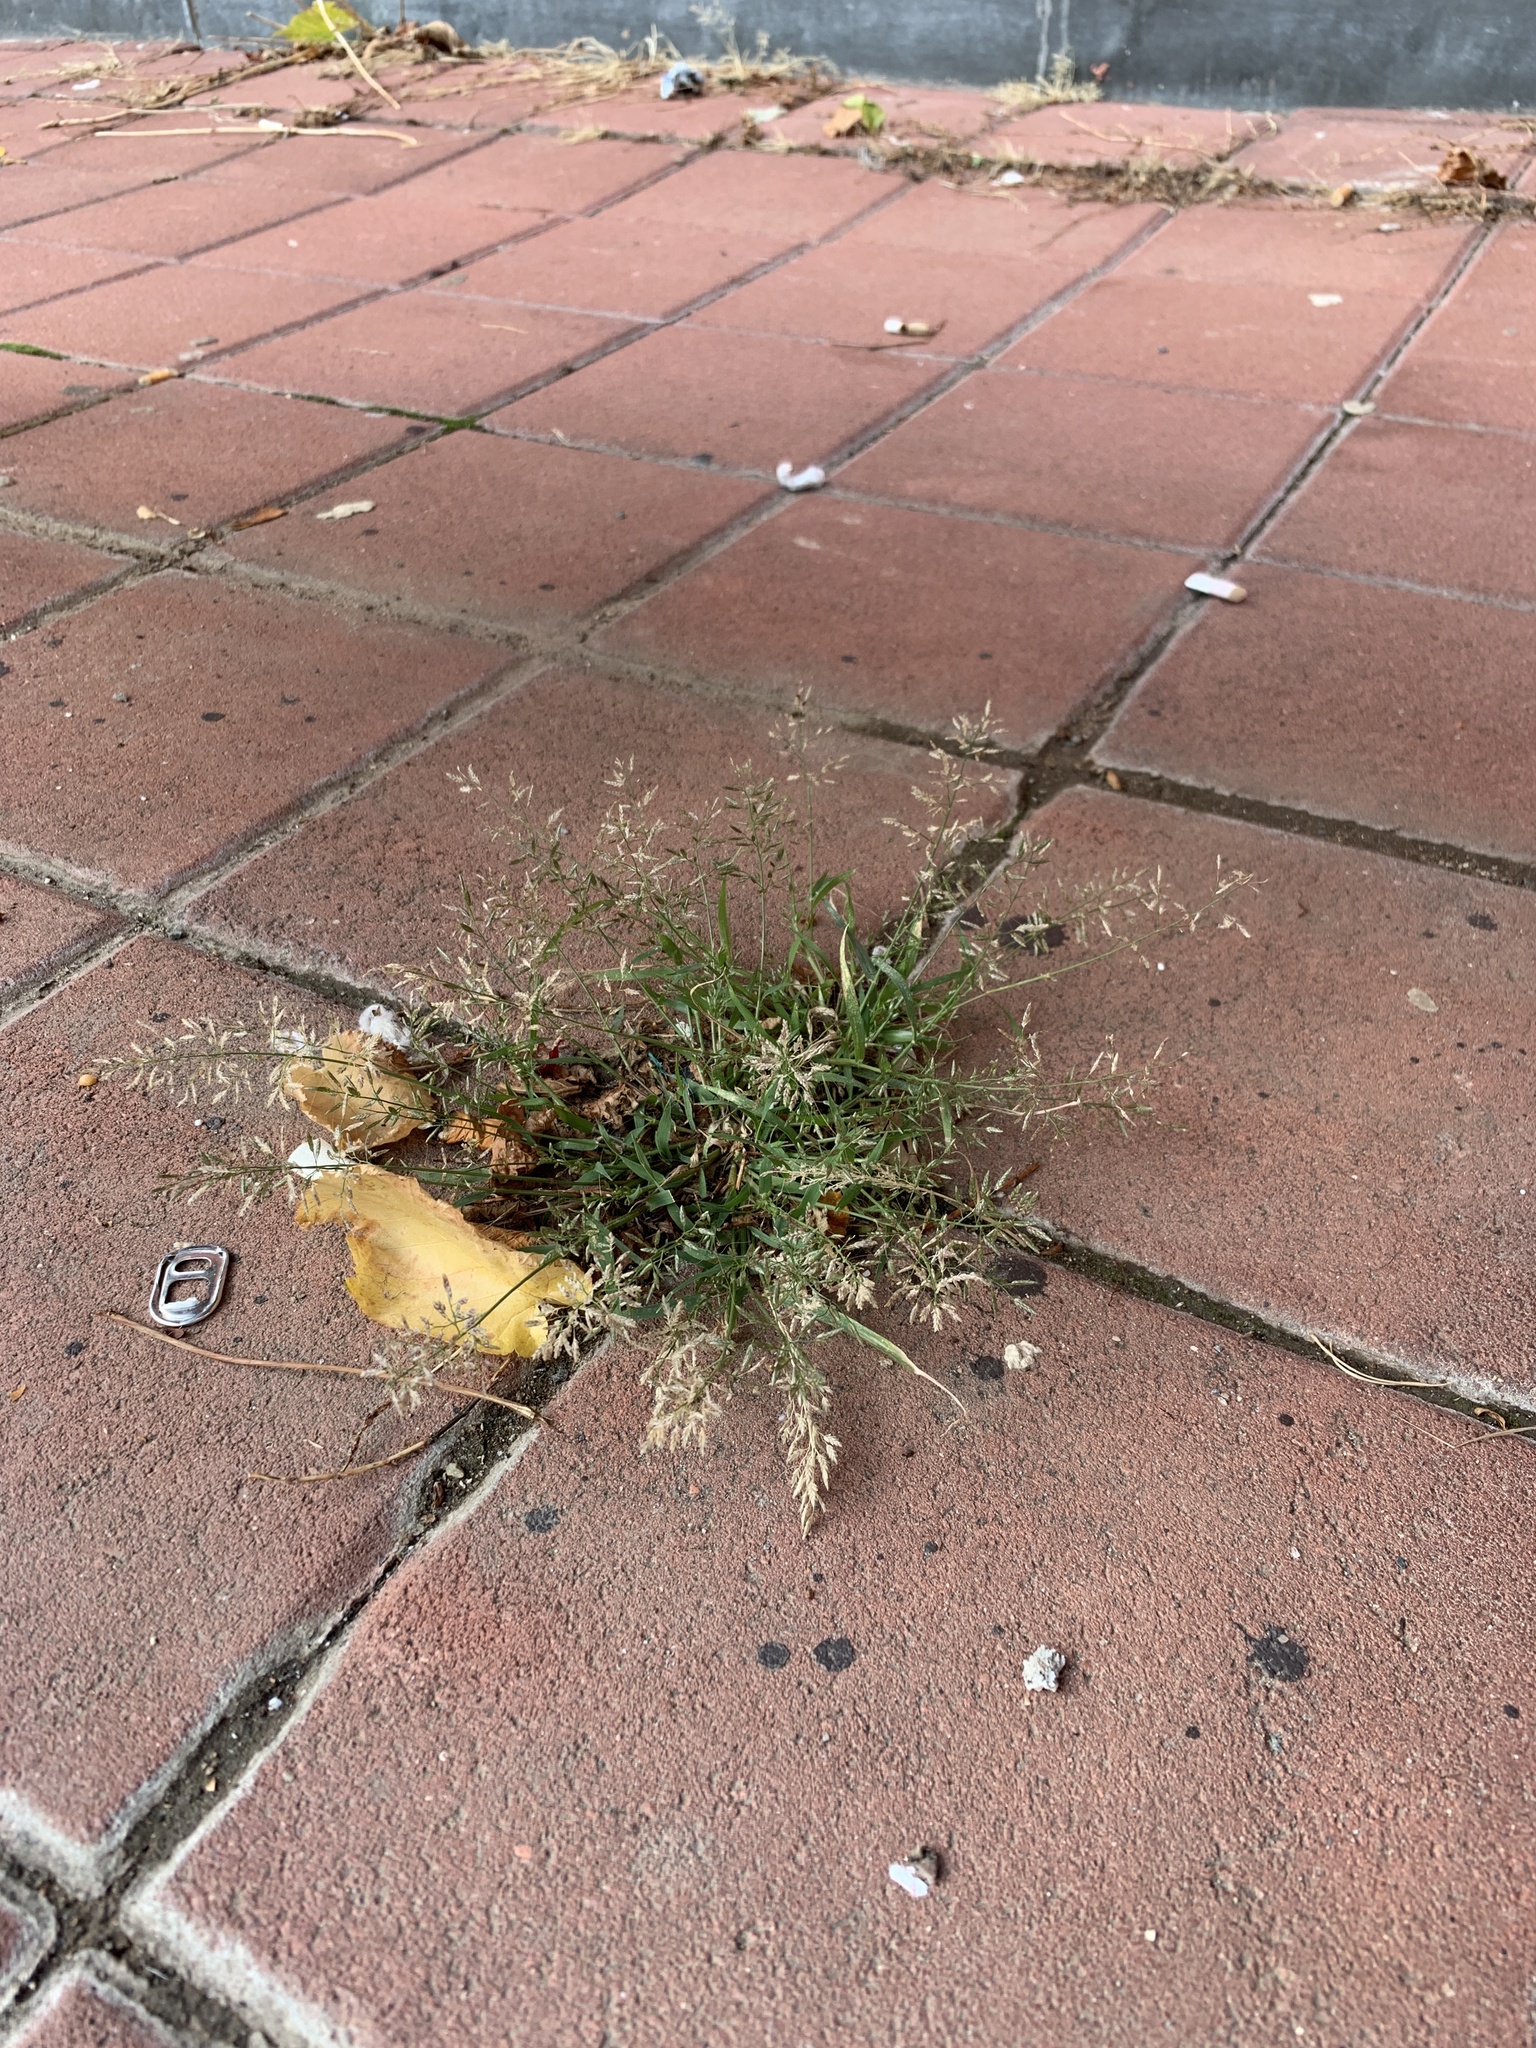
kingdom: Plantae
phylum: Tracheophyta
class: Liliopsida
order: Poales
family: Poaceae
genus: Eragrostis
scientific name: Eragrostis minor
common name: Small love-grass
